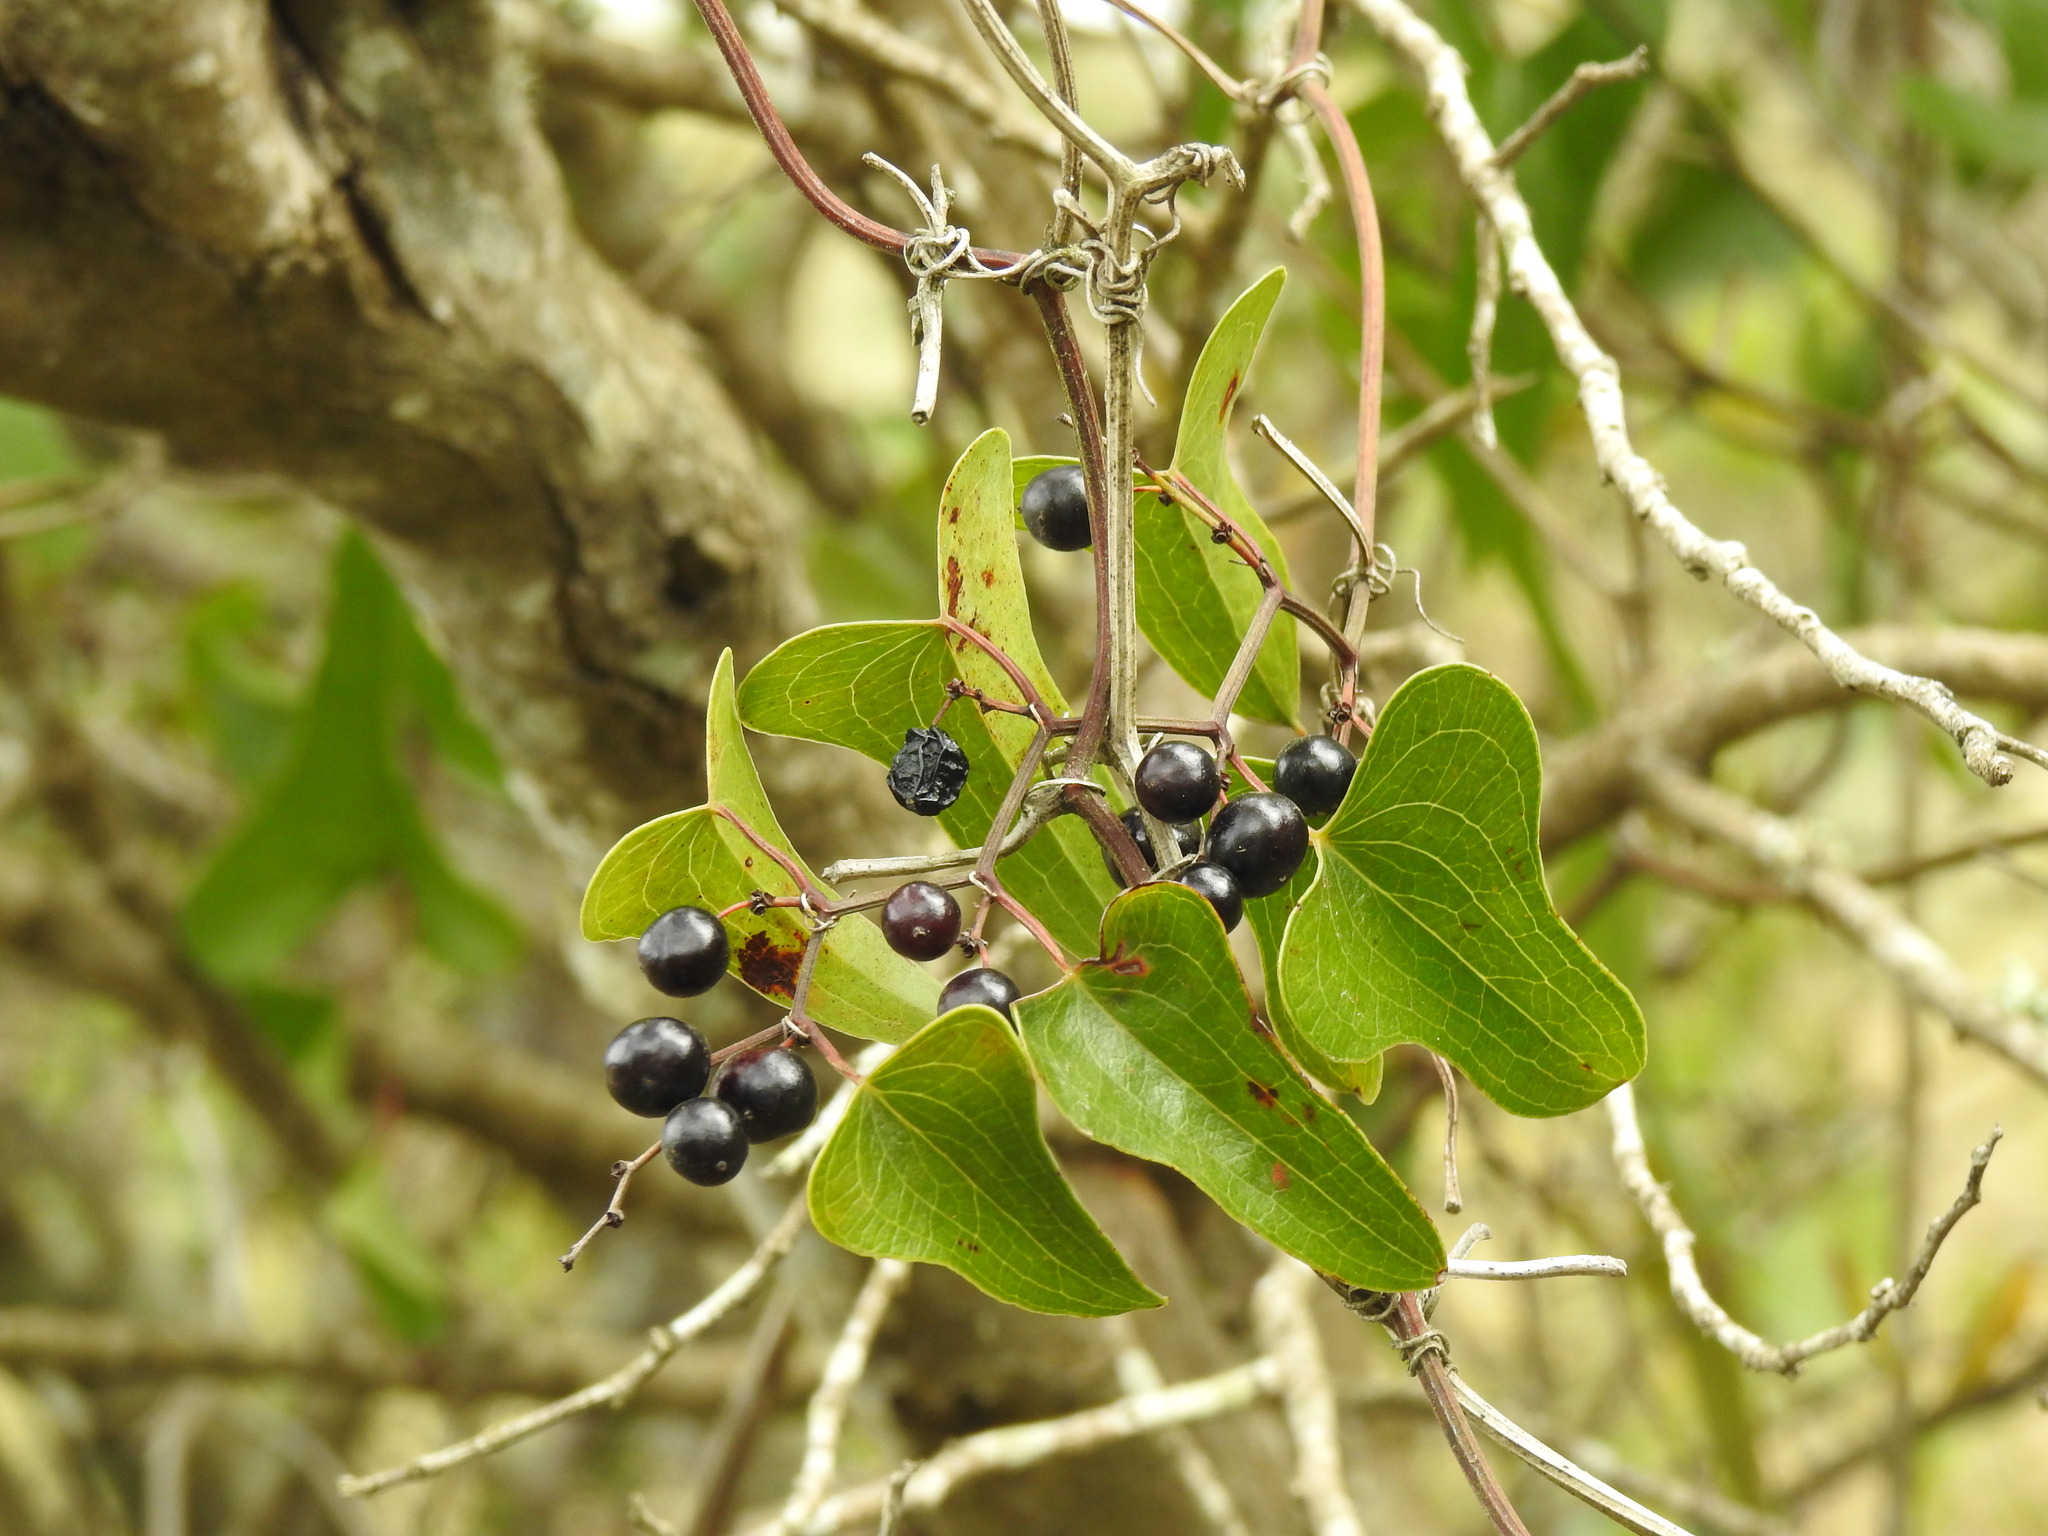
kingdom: Plantae
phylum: Tracheophyta
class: Liliopsida
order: Liliales
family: Smilacaceae
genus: Smilax
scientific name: Smilax aspera
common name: Common smilax
